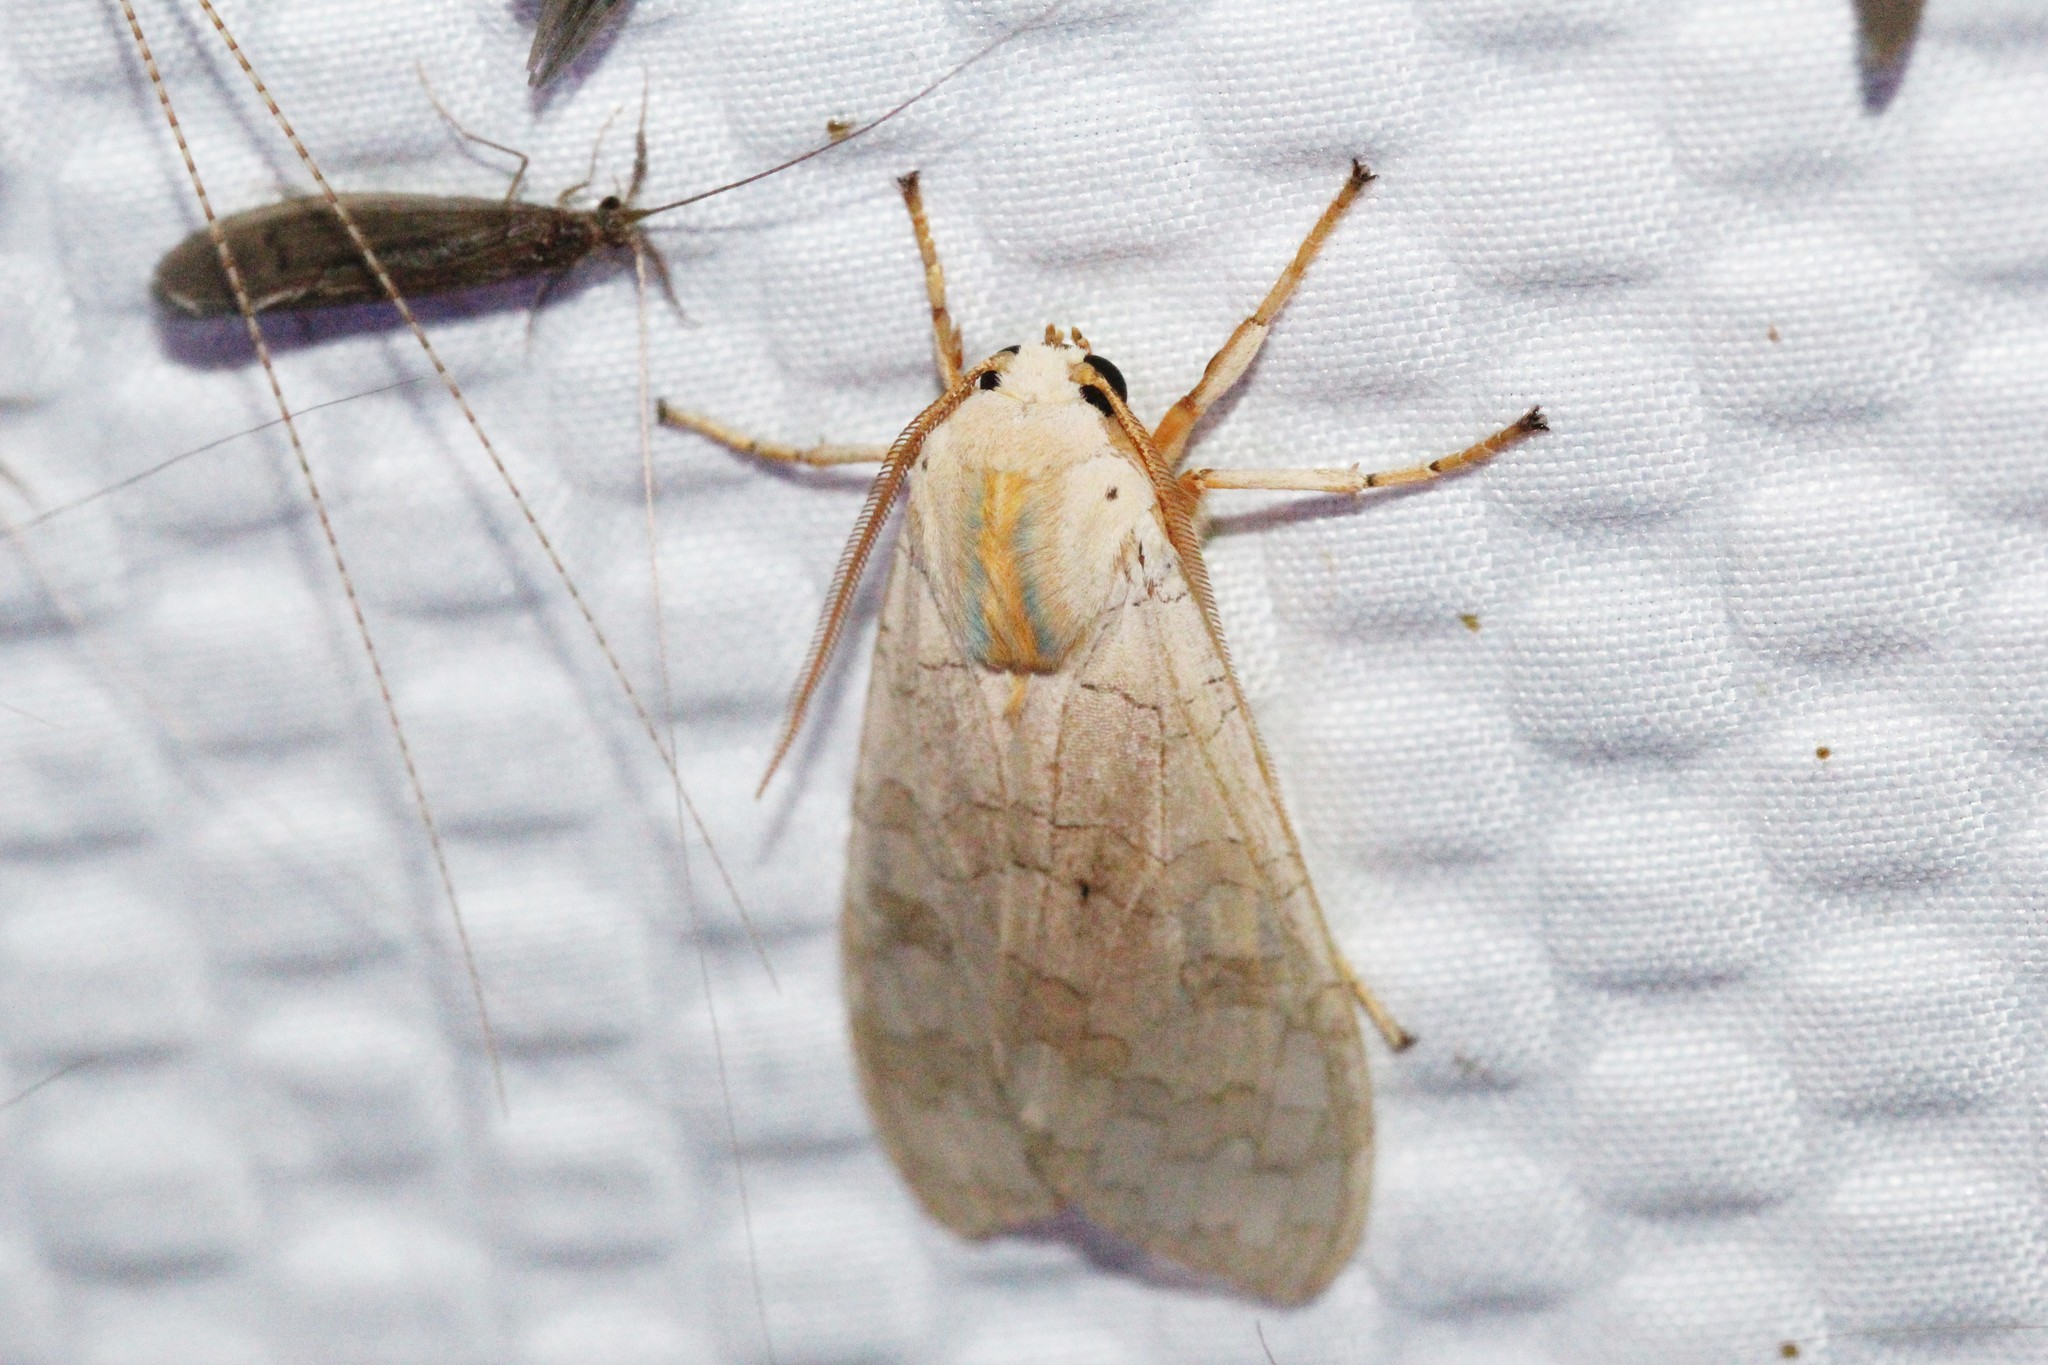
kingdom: Animalia
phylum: Arthropoda
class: Insecta
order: Lepidoptera
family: Erebidae
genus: Halysidota
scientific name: Halysidota
